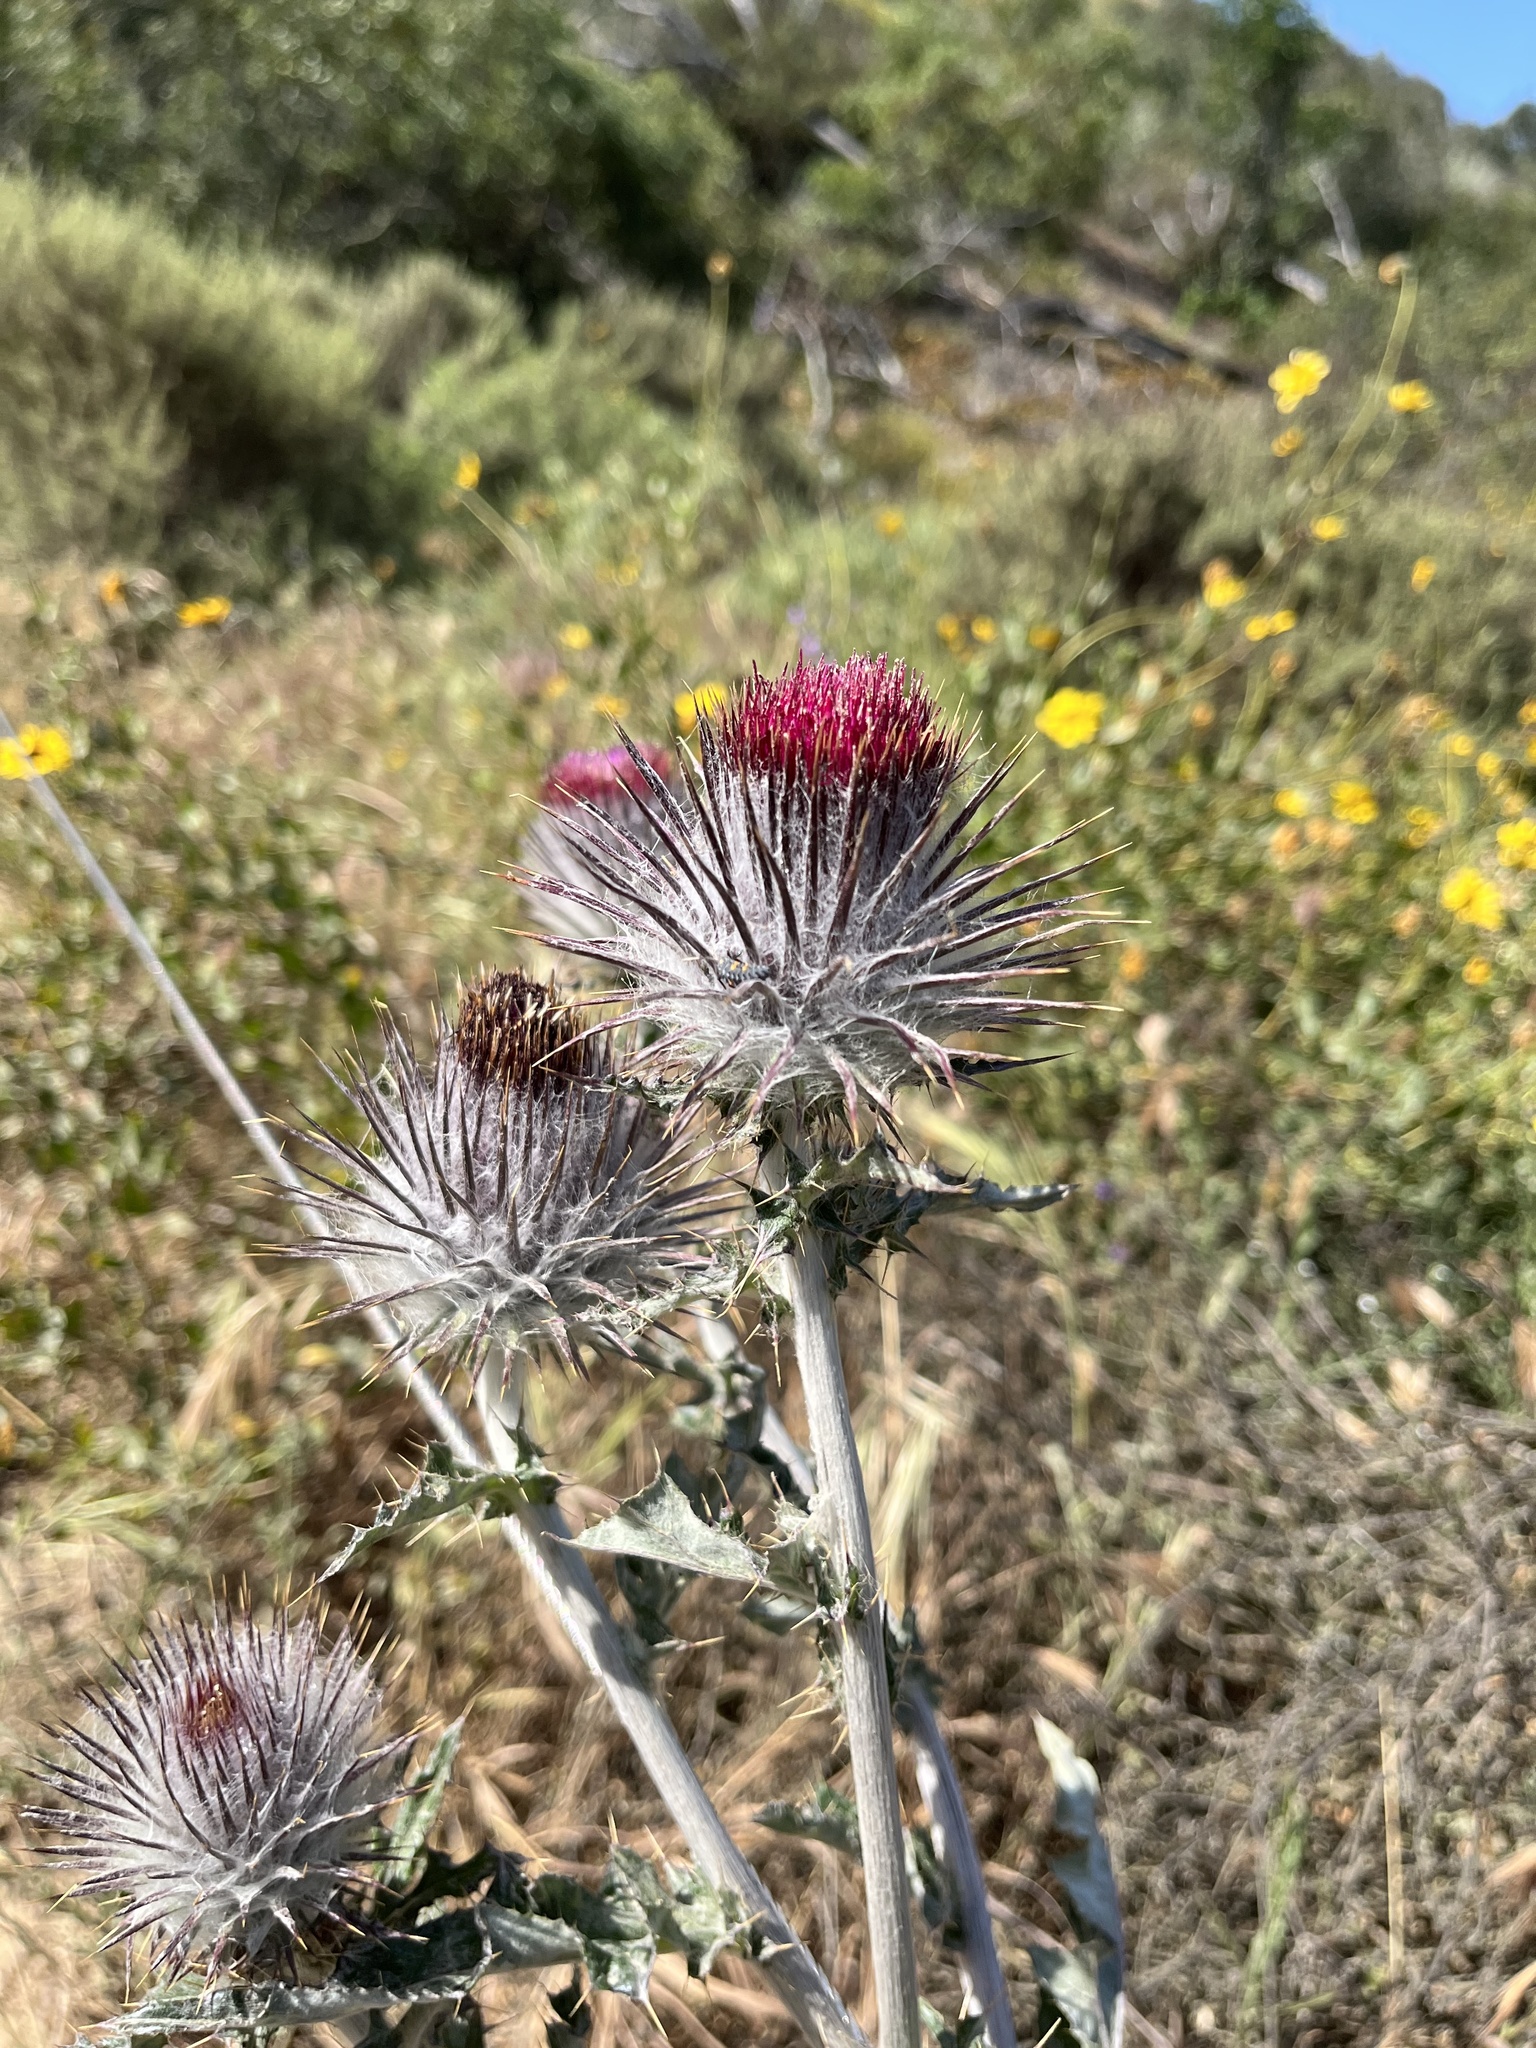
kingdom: Plantae
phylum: Tracheophyta
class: Magnoliopsida
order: Asterales
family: Asteraceae
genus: Cirsium
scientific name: Cirsium occidentale
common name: Western thistle
